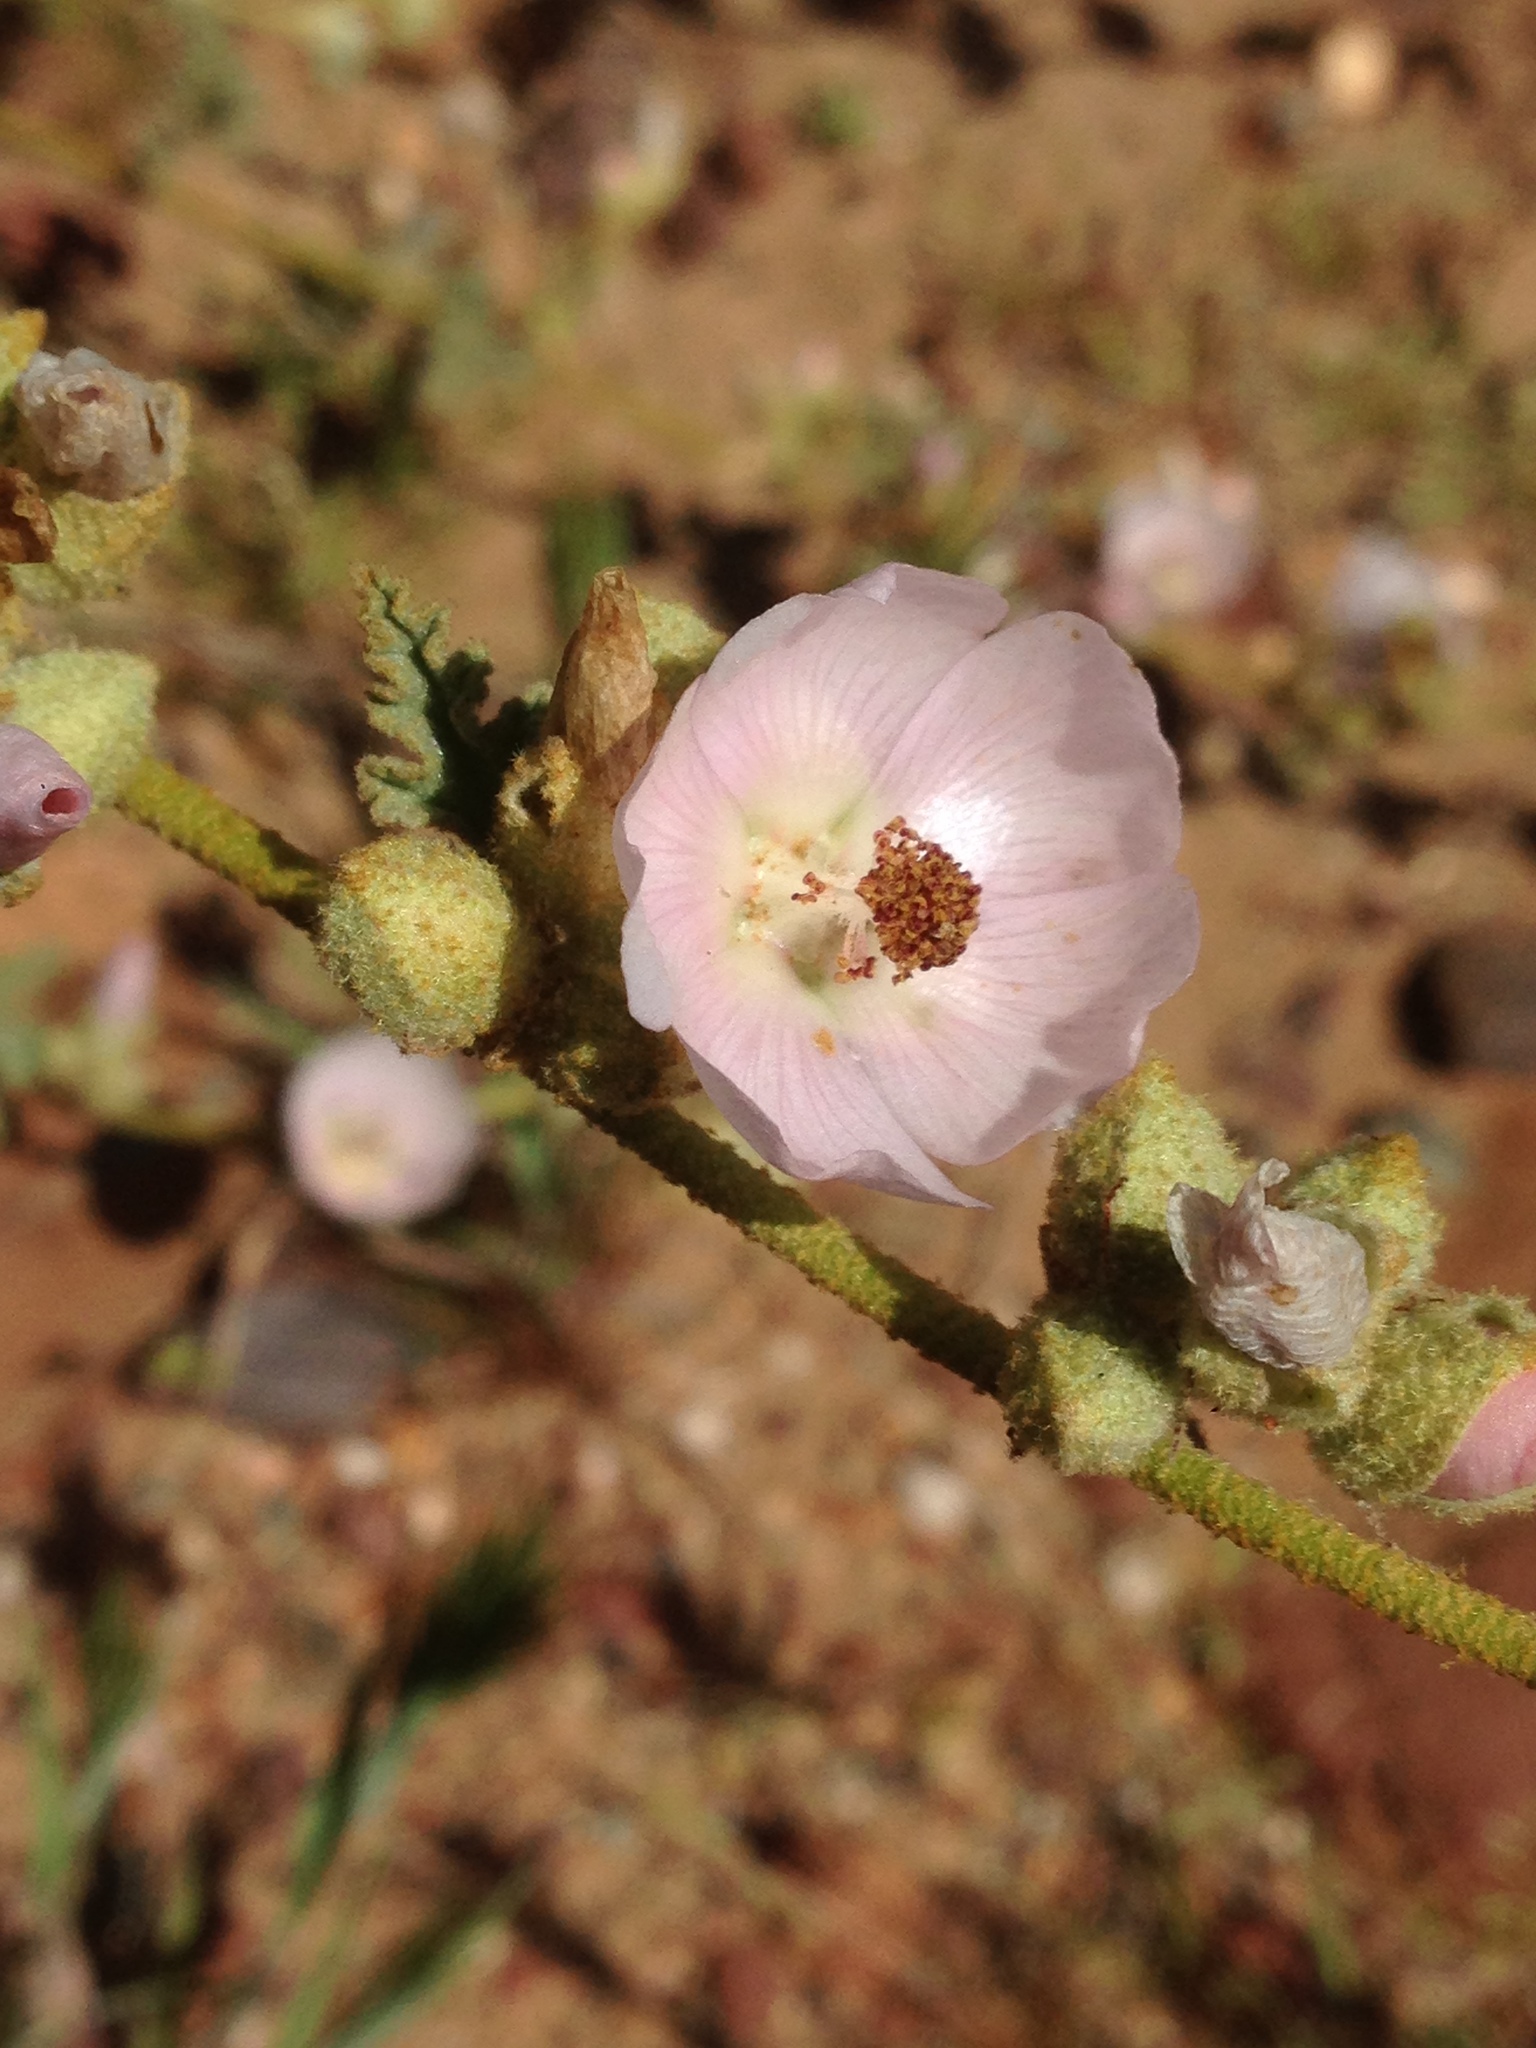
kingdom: Plantae
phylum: Tracheophyta
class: Magnoliopsida
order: Malvales
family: Malvaceae
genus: Sphaeralcea
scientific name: Sphaeralcea fulva
